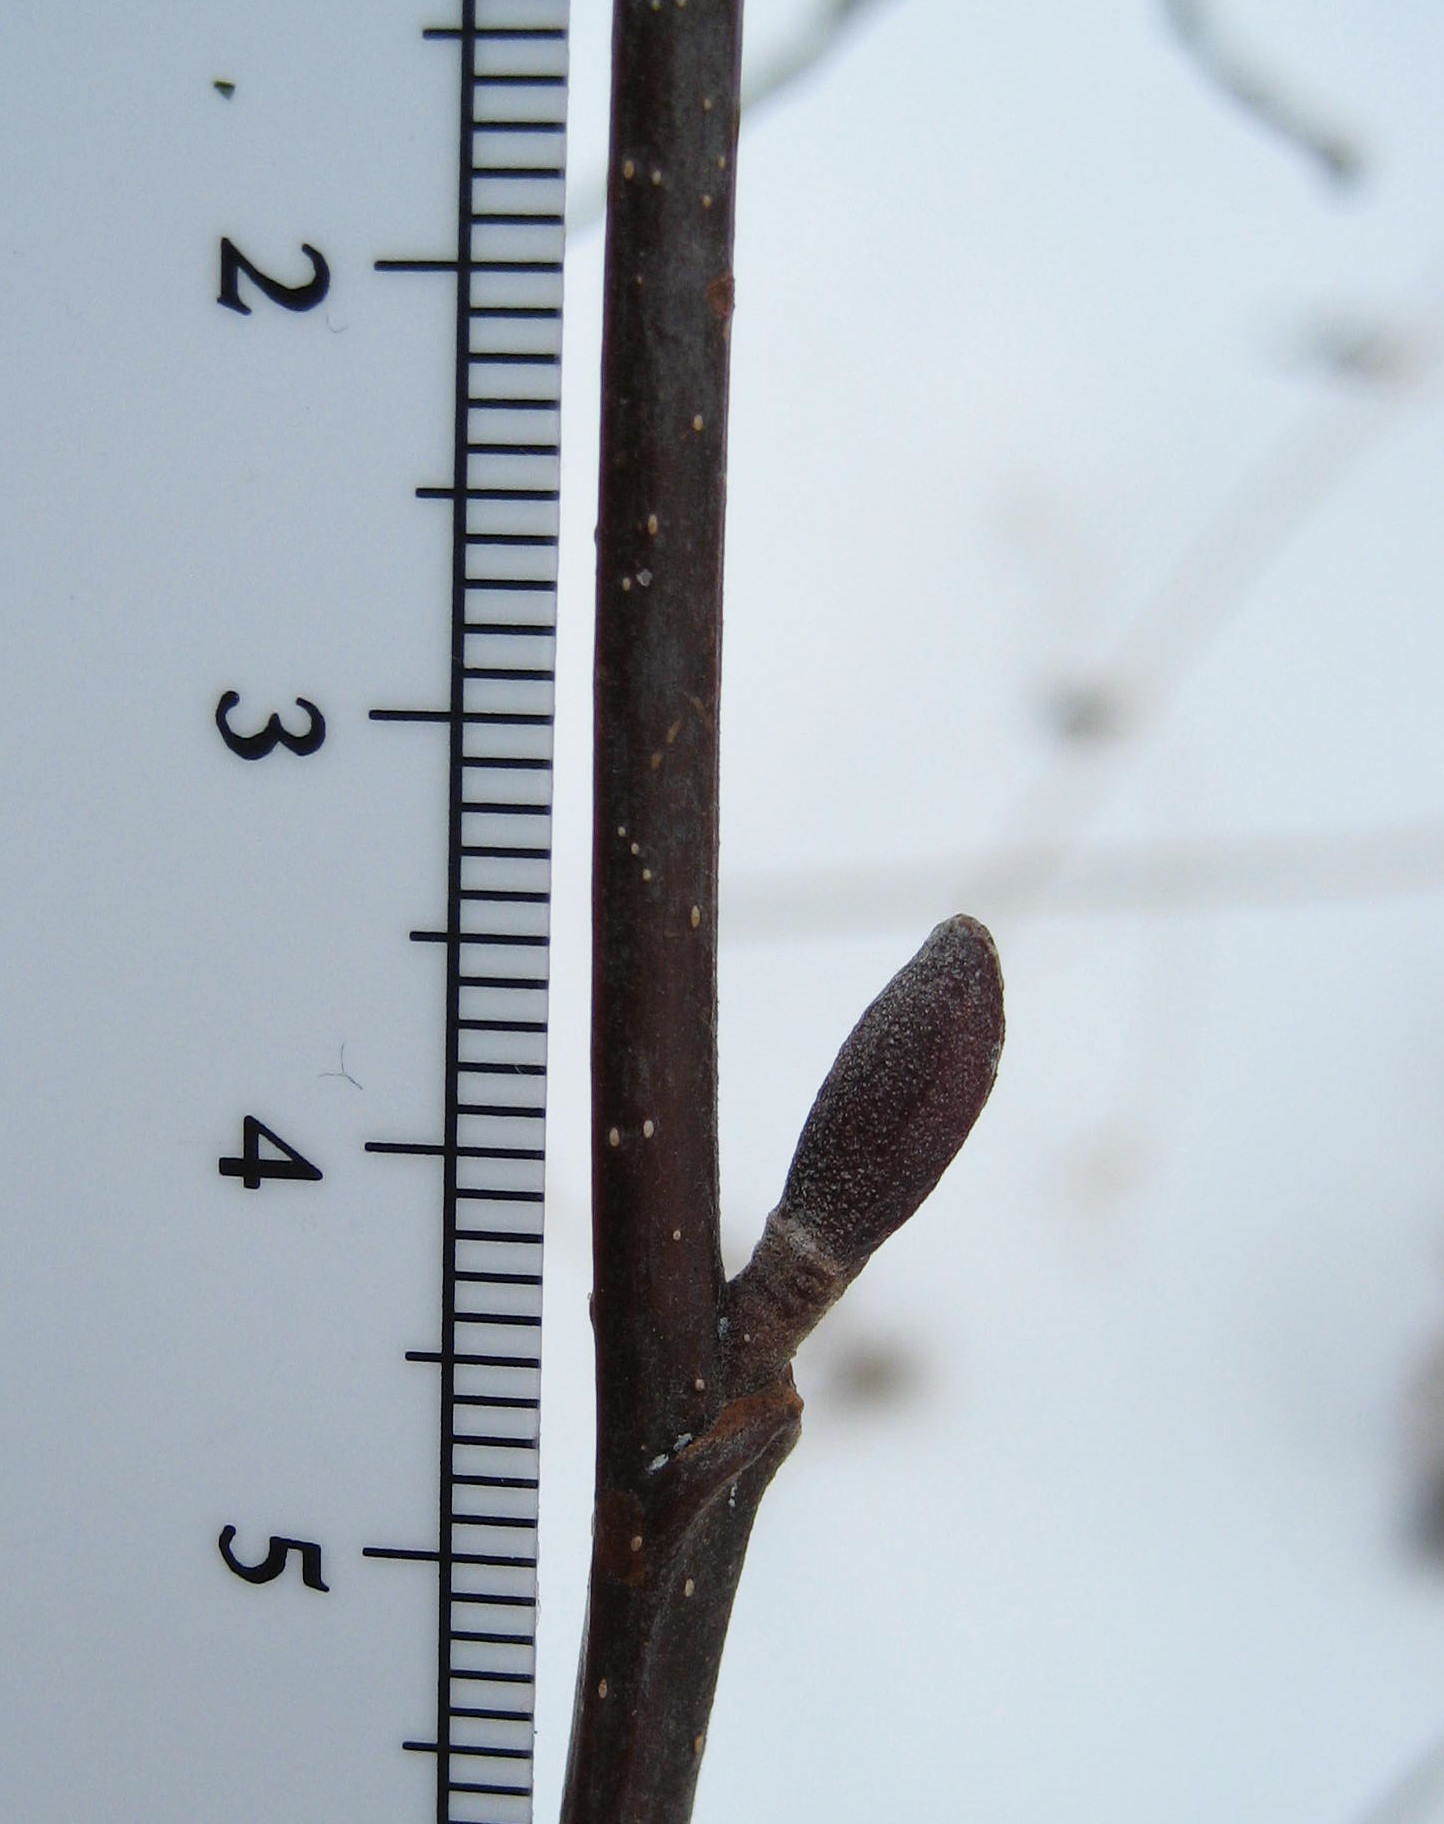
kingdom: Plantae
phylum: Tracheophyta
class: Magnoliopsida
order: Fagales
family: Betulaceae
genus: Alnus
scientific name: Alnus incana
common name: Grey alder
